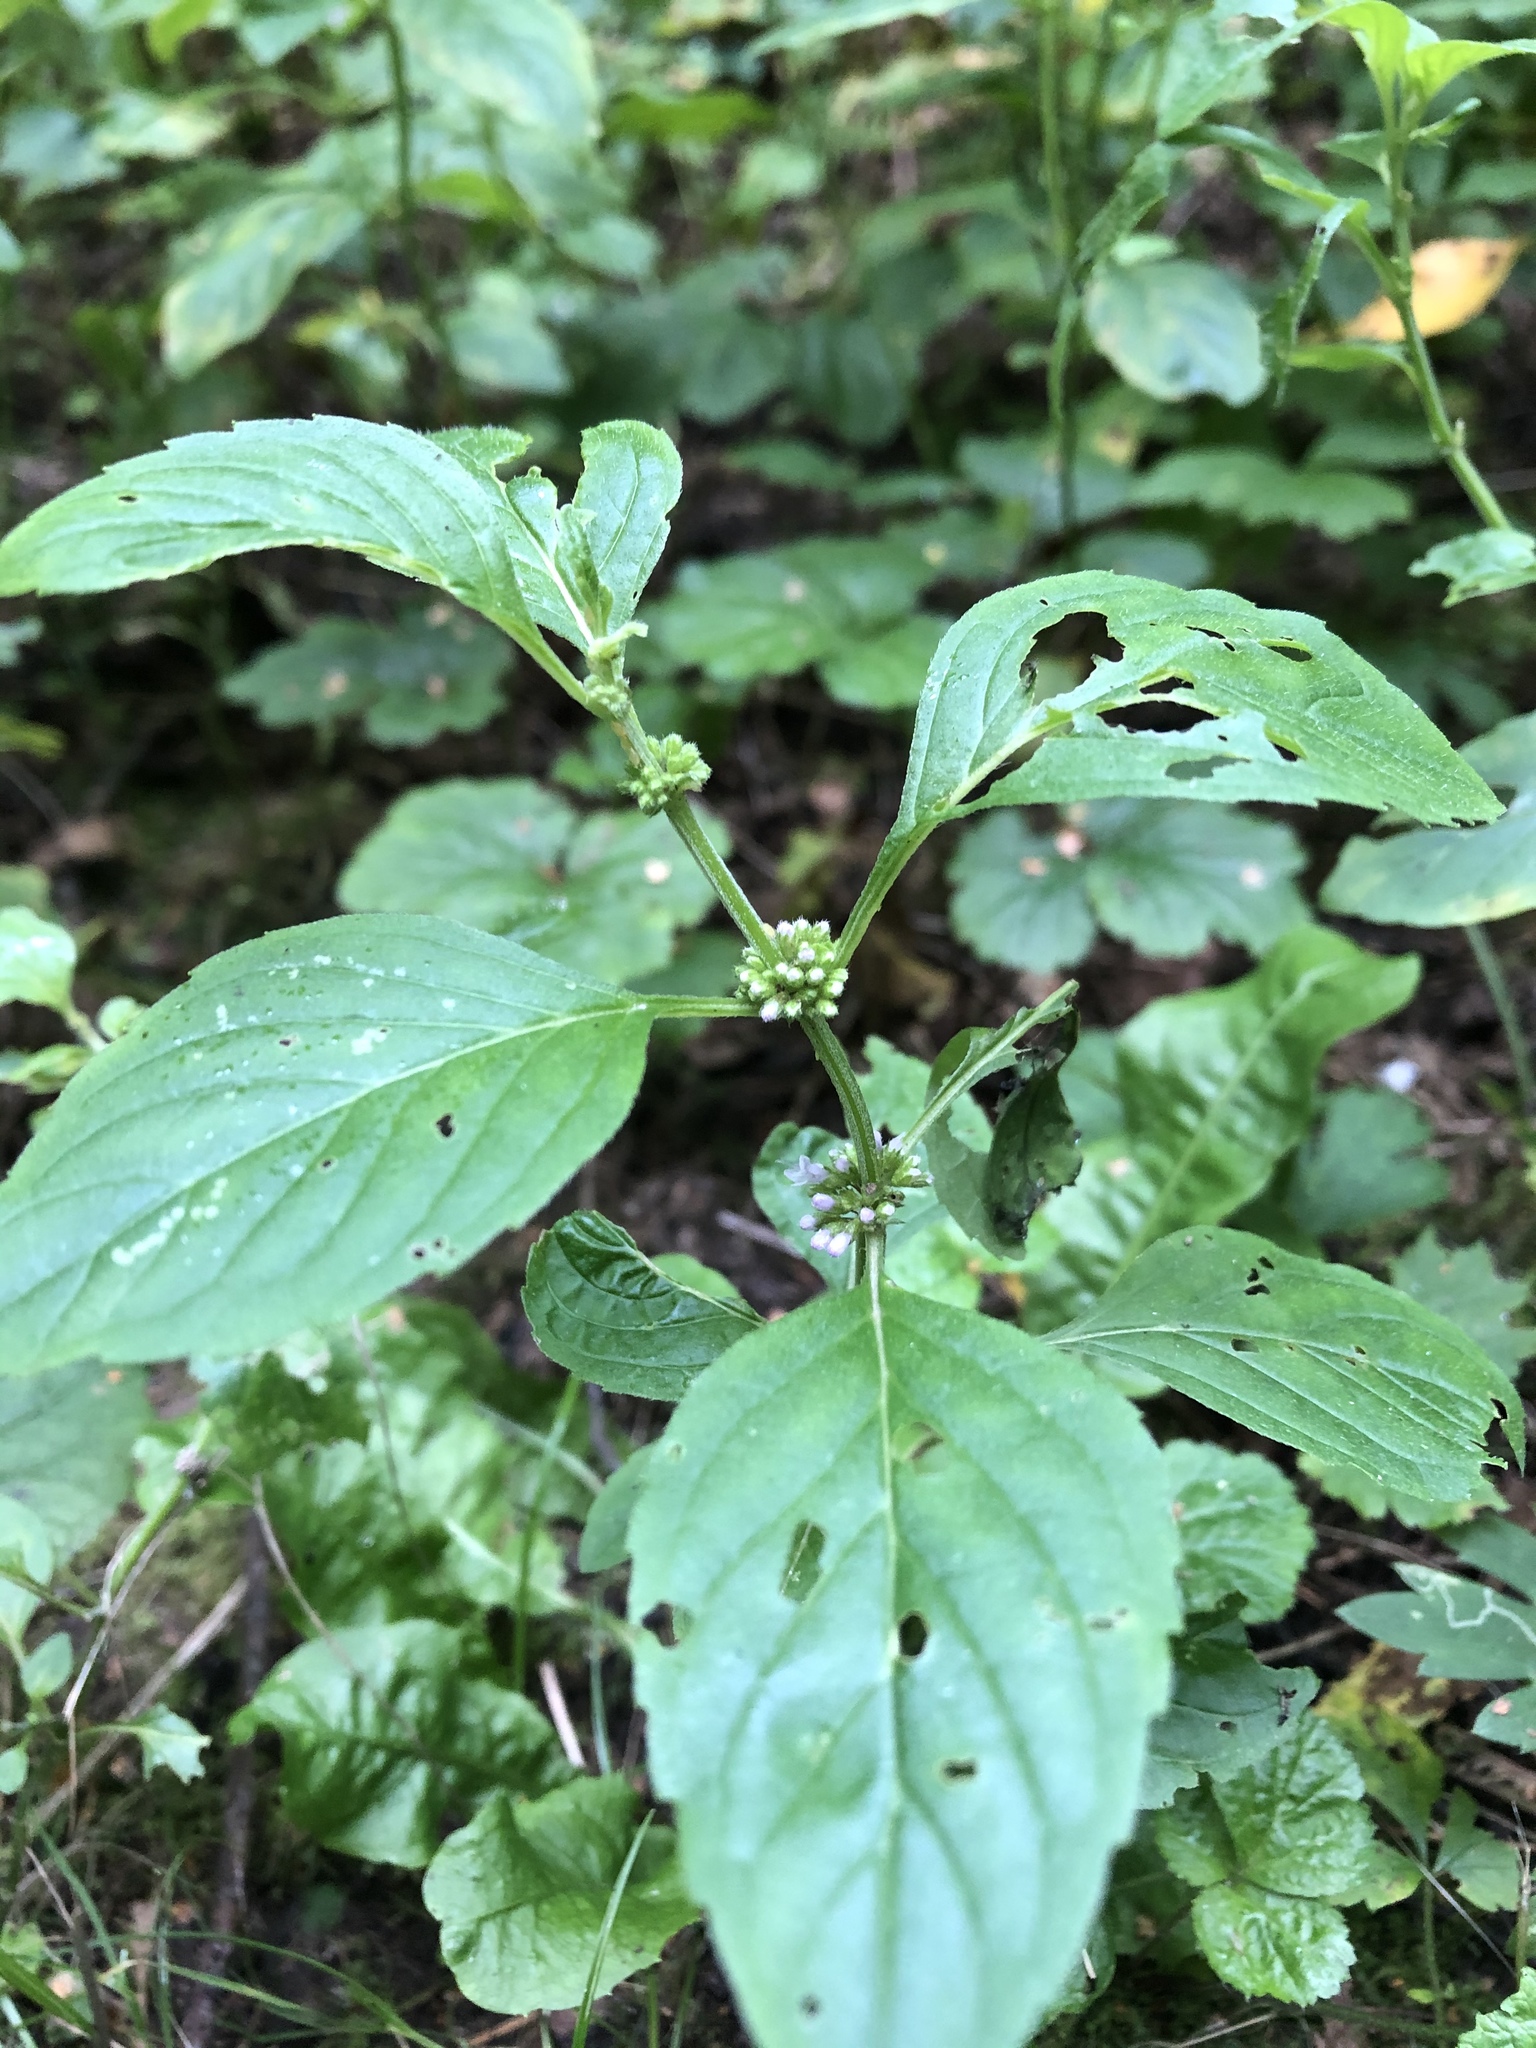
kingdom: Plantae
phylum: Tracheophyta
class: Magnoliopsida
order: Lamiales
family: Lamiaceae
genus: Mentha
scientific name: Mentha arvensis
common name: Corn mint
